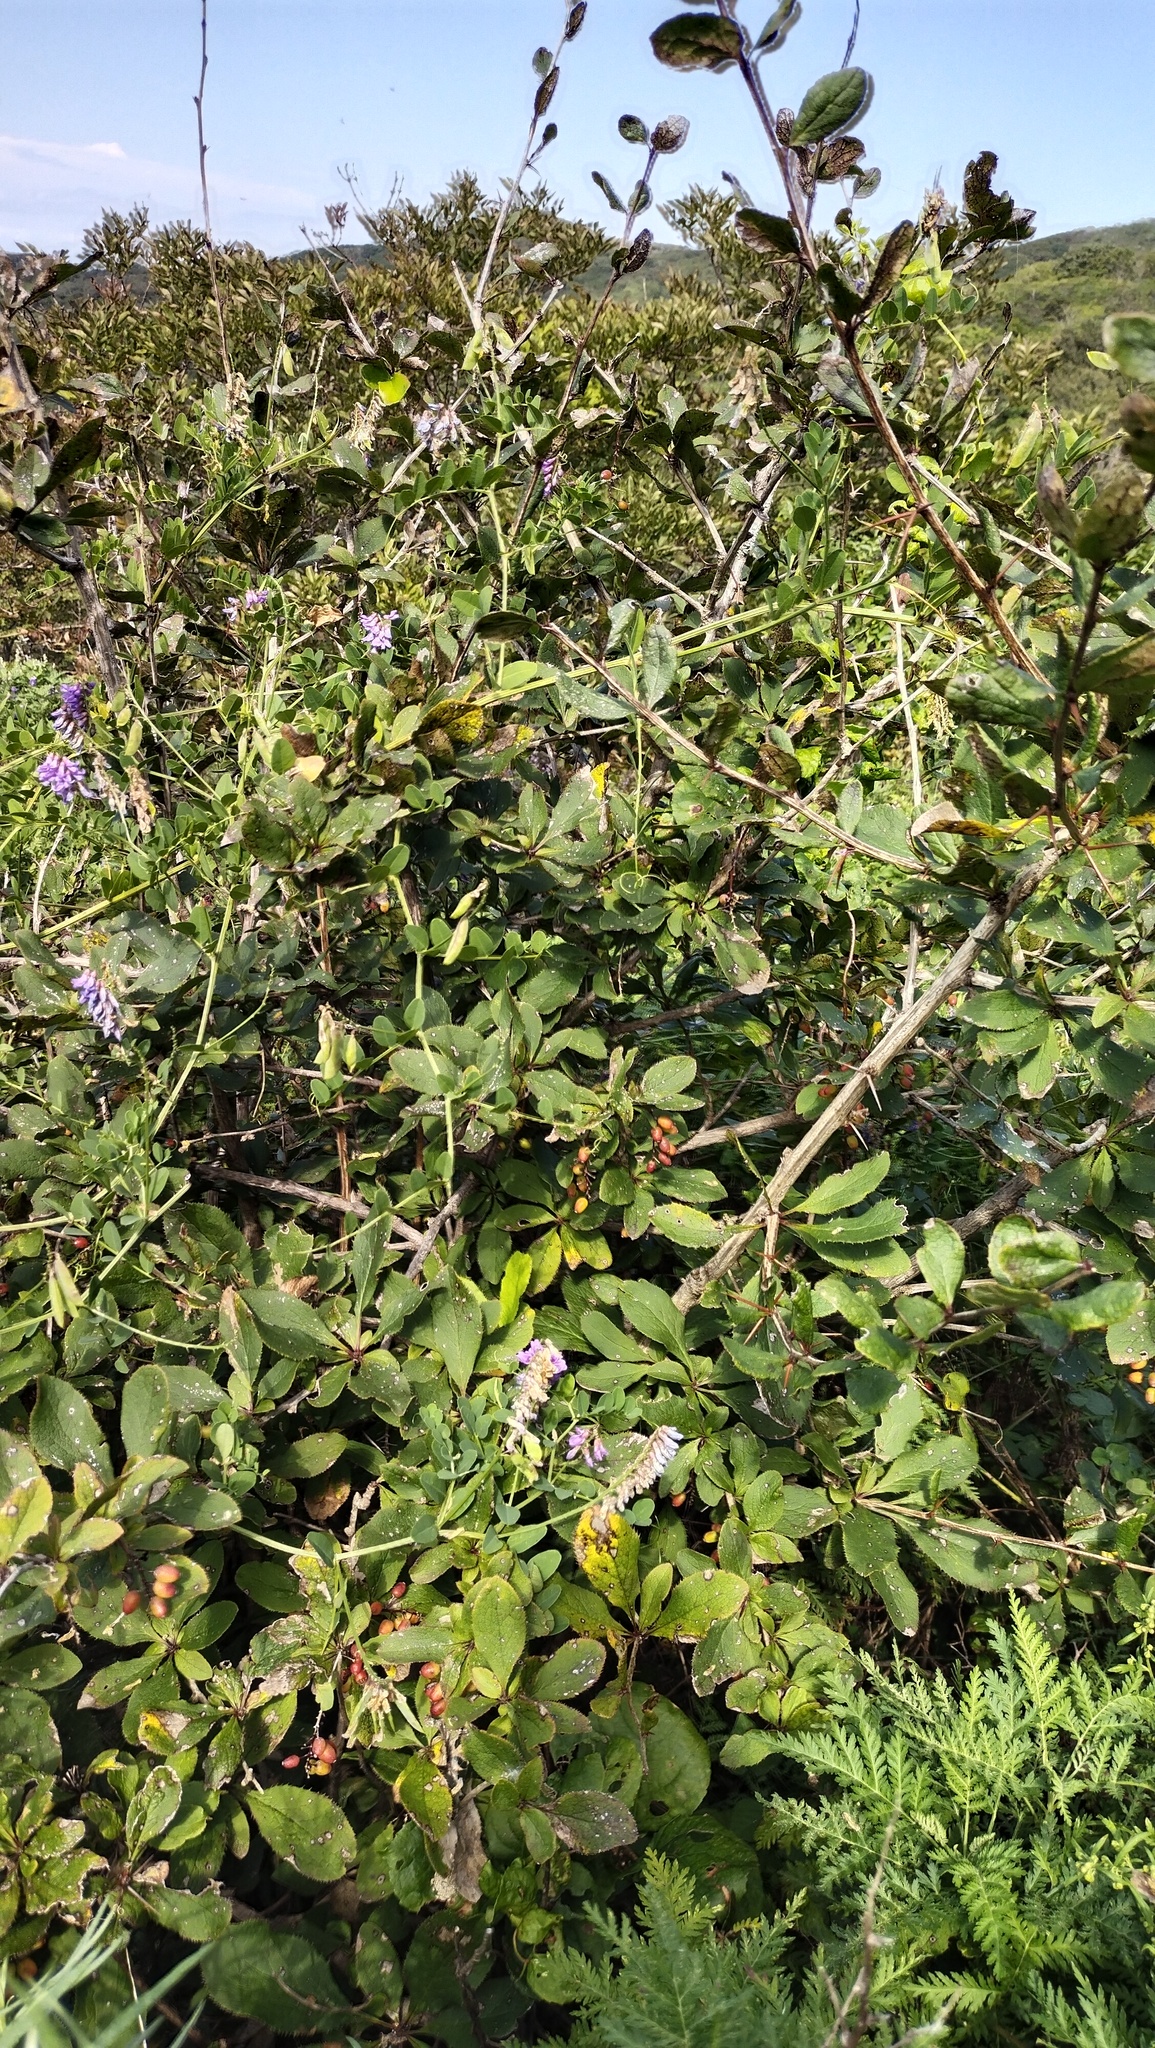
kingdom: Plantae
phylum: Tracheophyta
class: Magnoliopsida
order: Ranunculales
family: Berberidaceae
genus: Berberis
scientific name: Berberis amurensis
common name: Amur barberry
